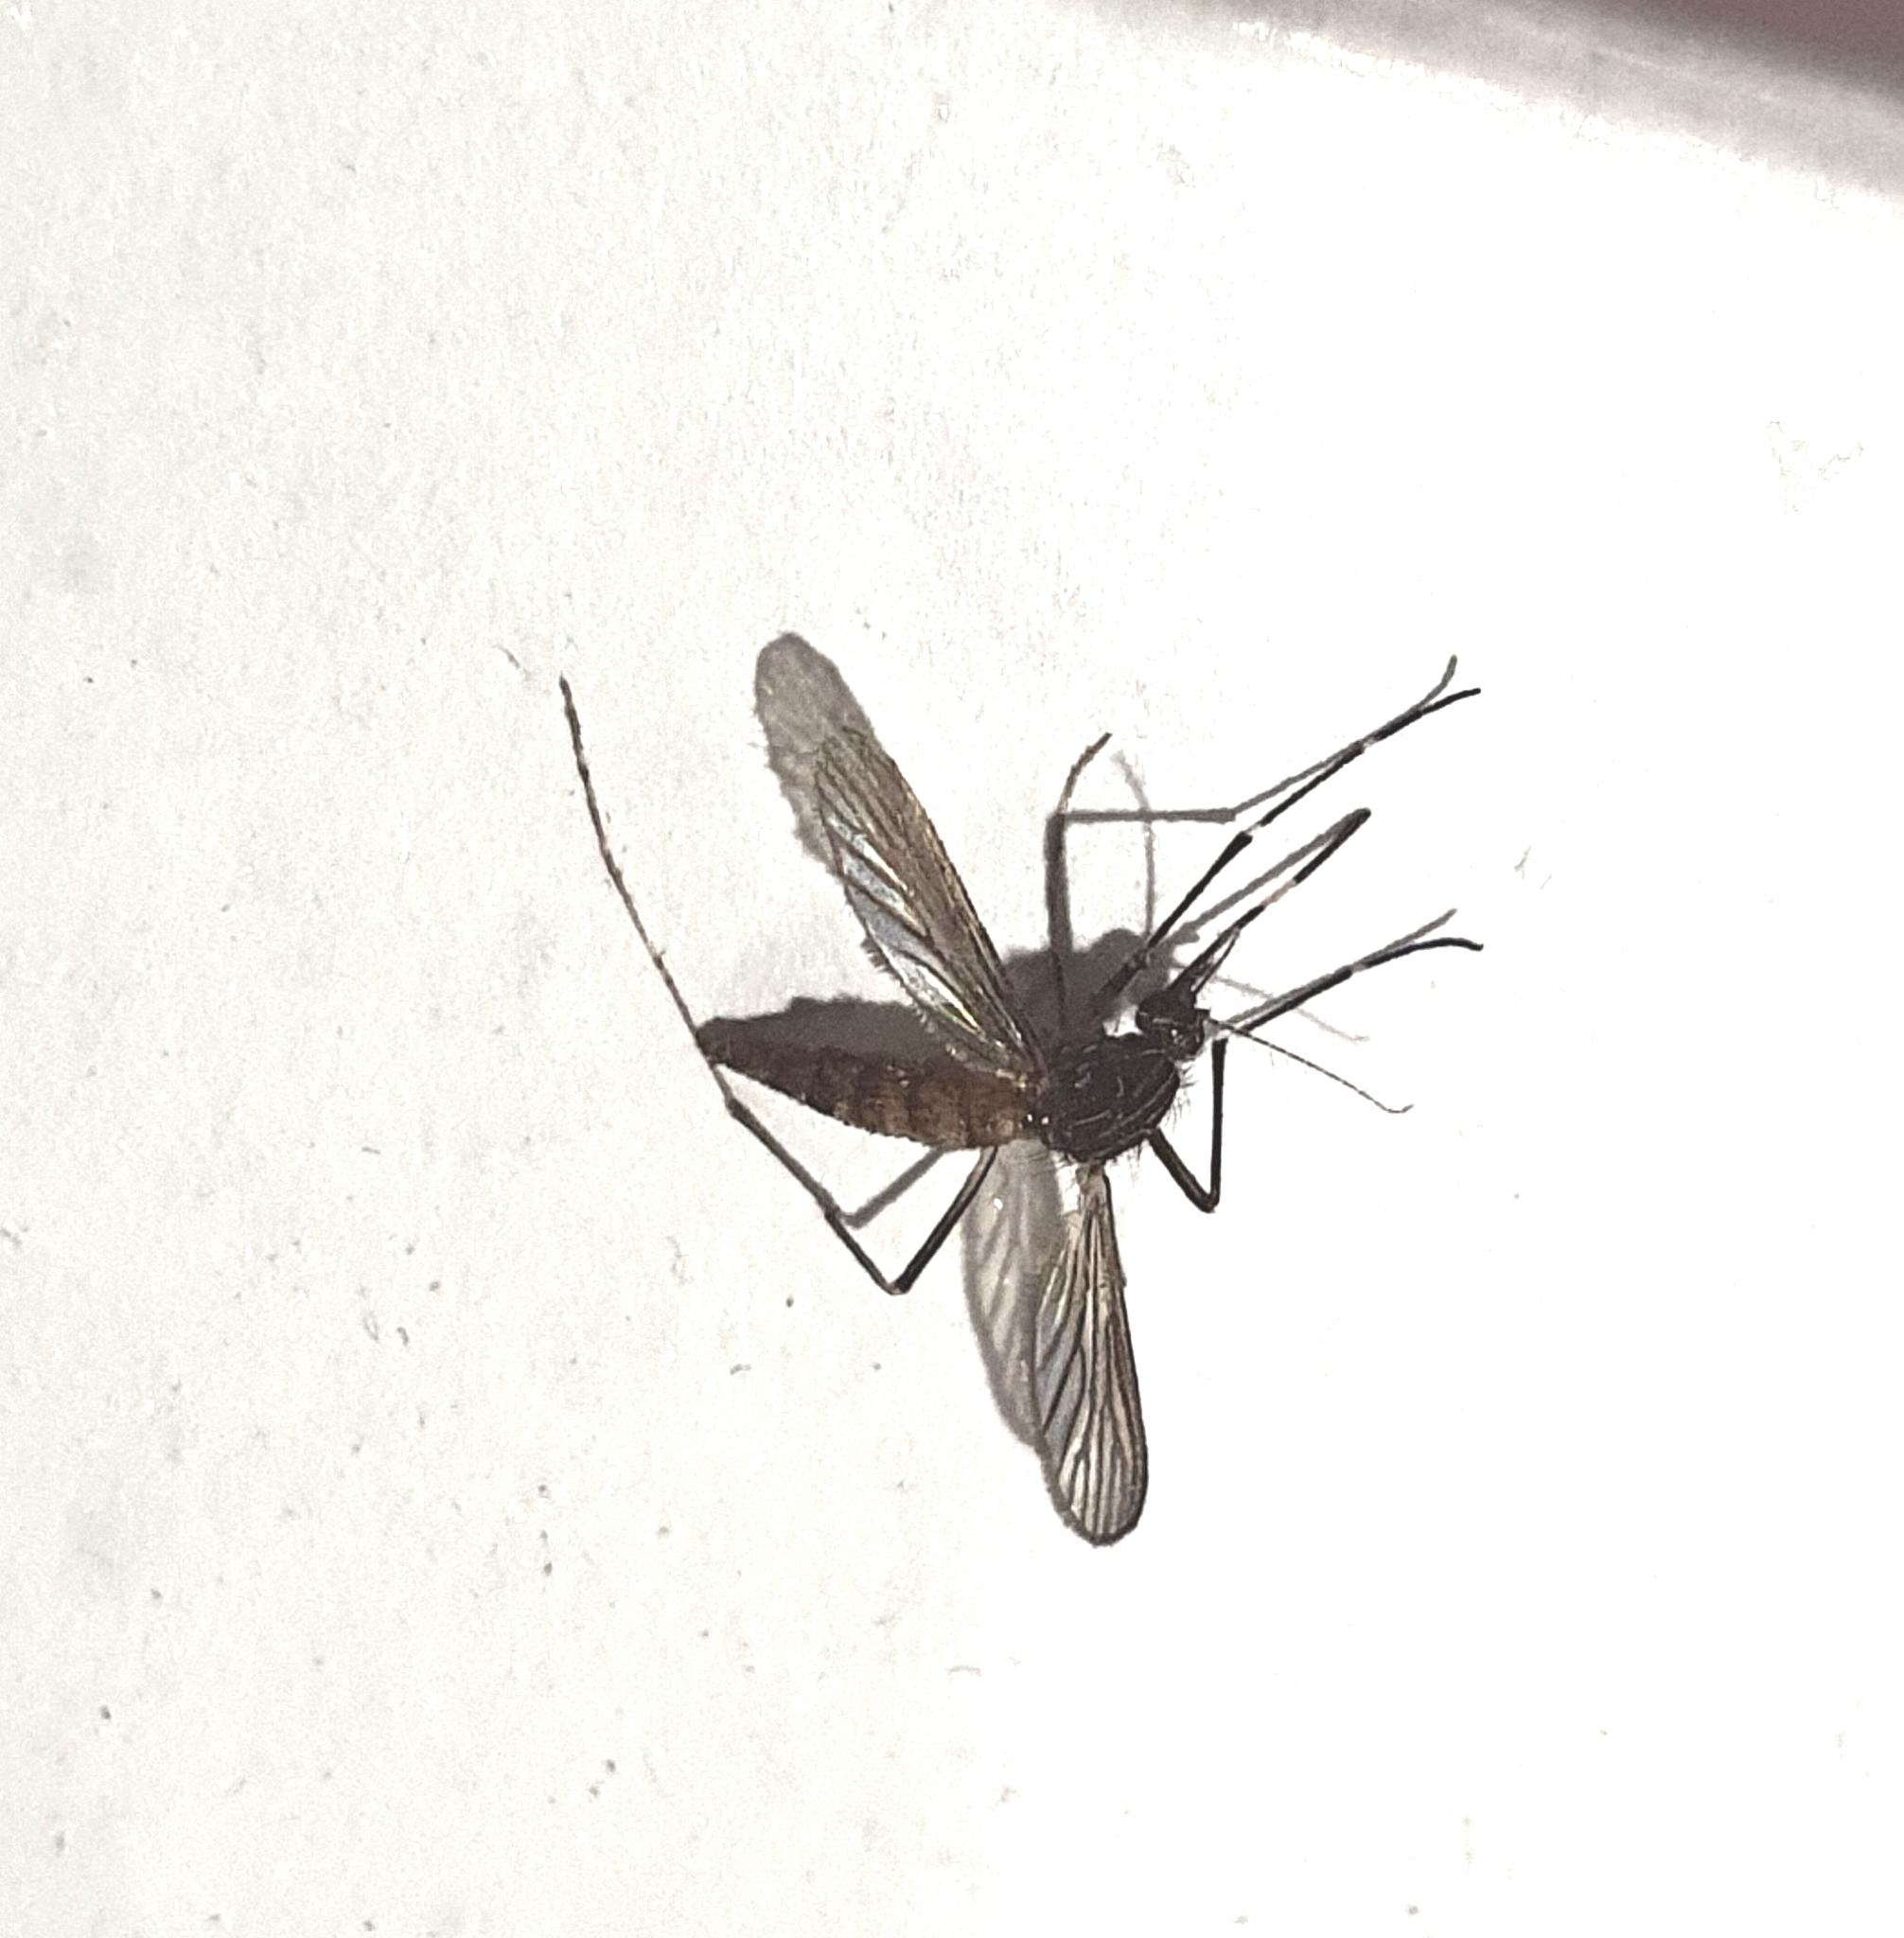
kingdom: Animalia
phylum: Arthropoda
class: Insecta
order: Diptera
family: Culicidae
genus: Aedes
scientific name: Aedes notoscriptus
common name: Australian backyard mosquito
